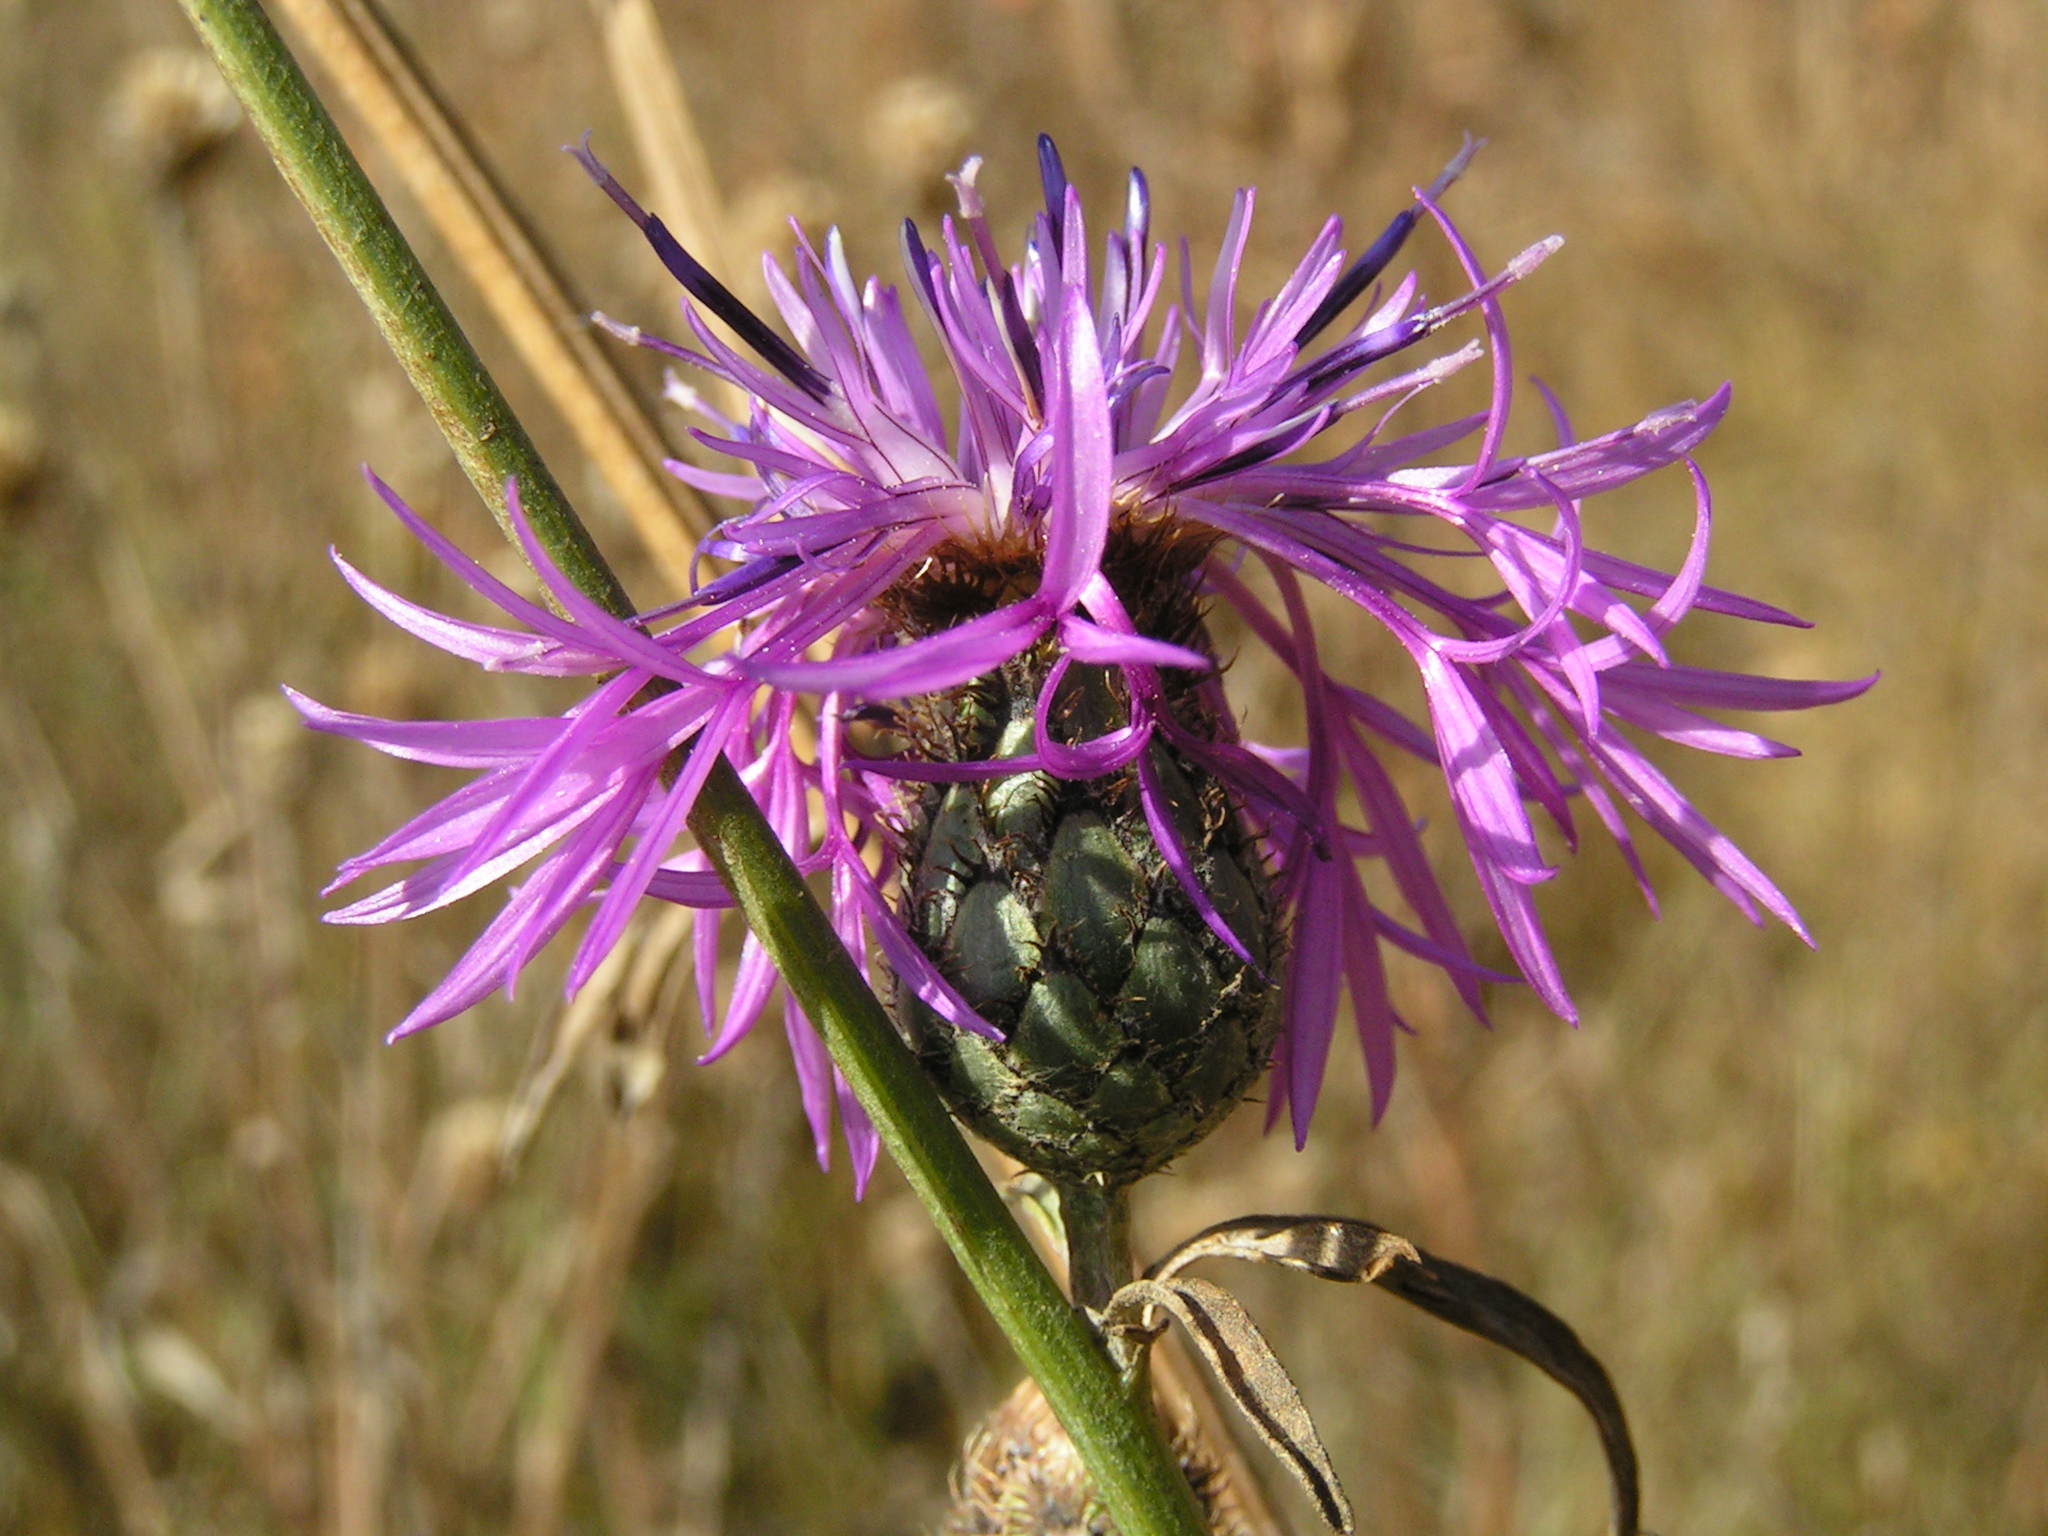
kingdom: Plantae
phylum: Tracheophyta
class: Magnoliopsida
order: Asterales
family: Asteraceae
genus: Centaurea
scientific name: Centaurea apiculata
